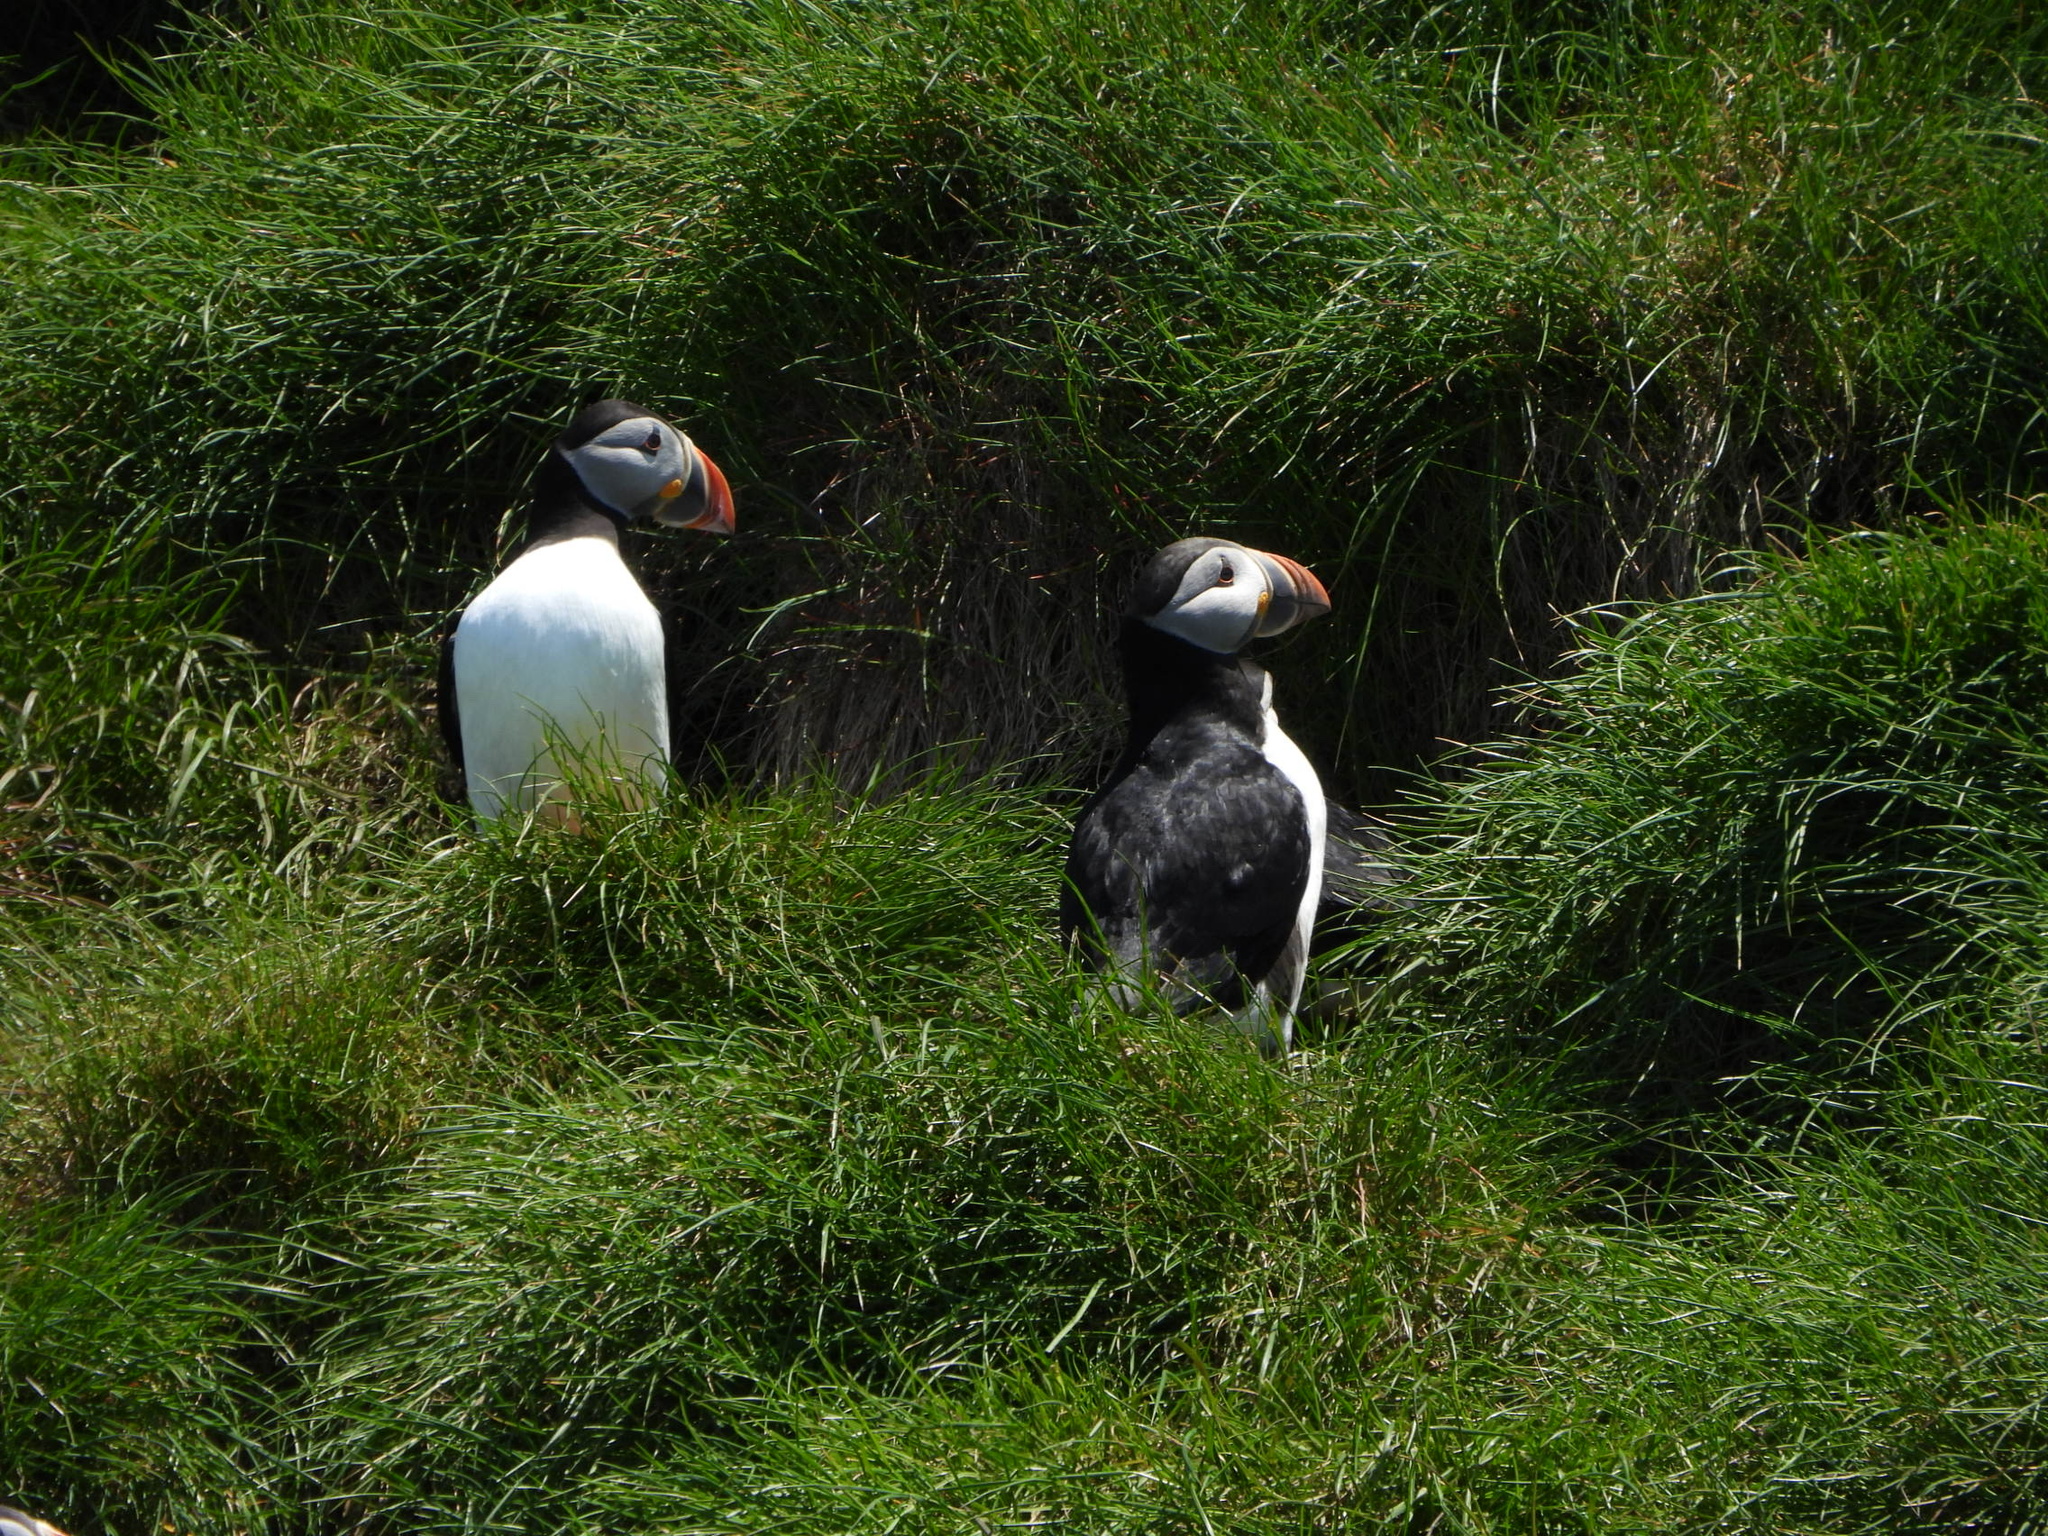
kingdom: Animalia
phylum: Chordata
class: Aves
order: Charadriiformes
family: Alcidae
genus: Fratercula
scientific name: Fratercula arctica
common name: Atlantic puffin
